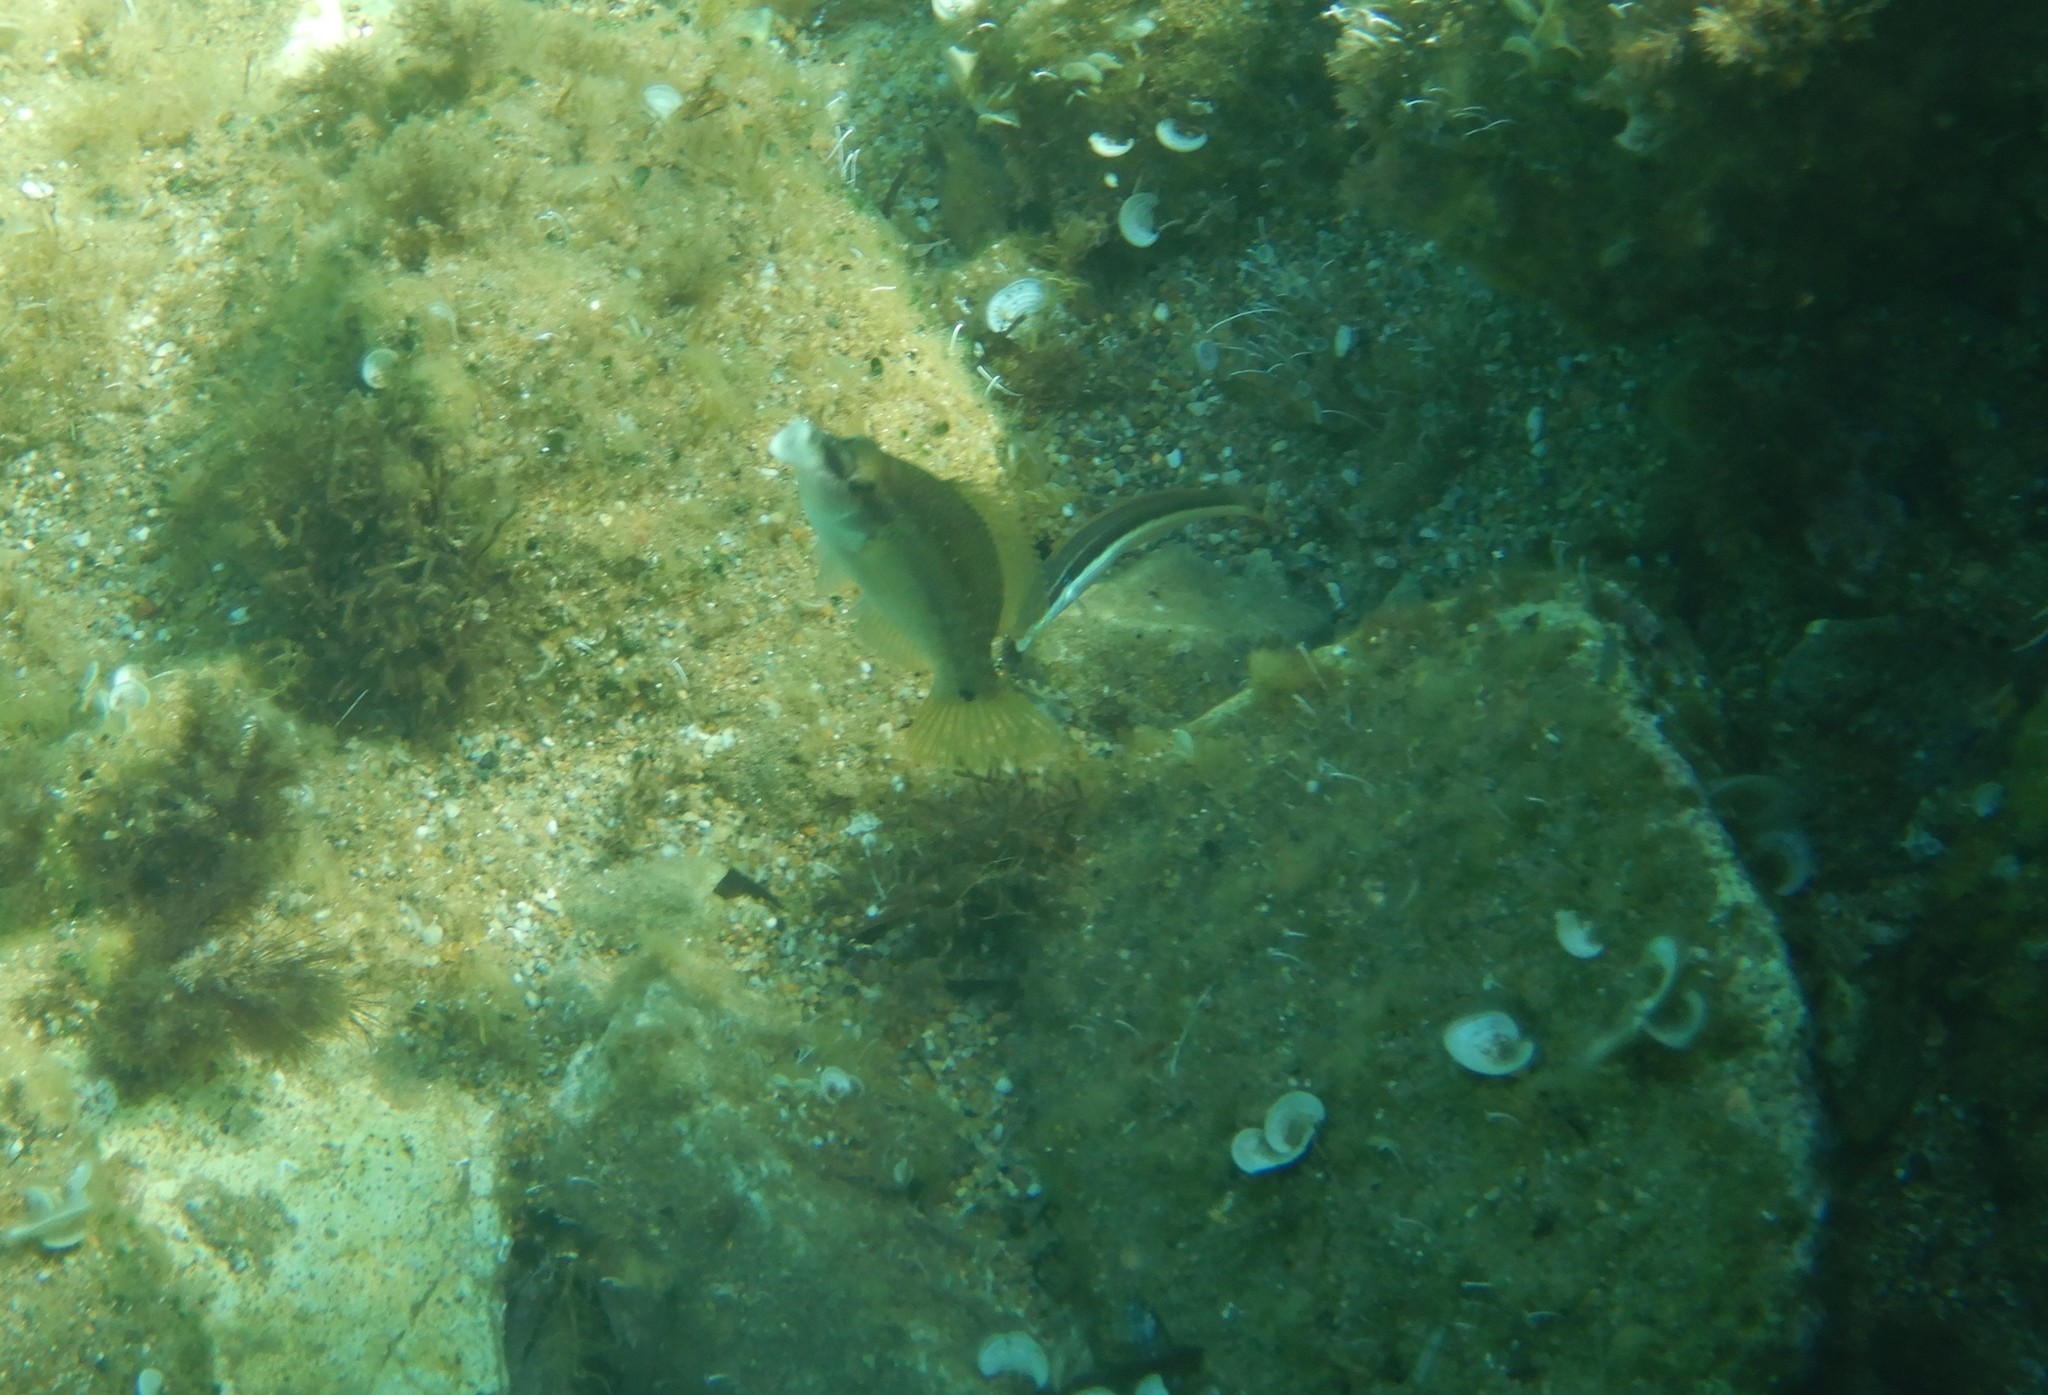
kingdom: Animalia
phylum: Chordata
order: Perciformes
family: Labridae
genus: Symphodus
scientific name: Symphodus tinca
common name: Peacock wrasse
